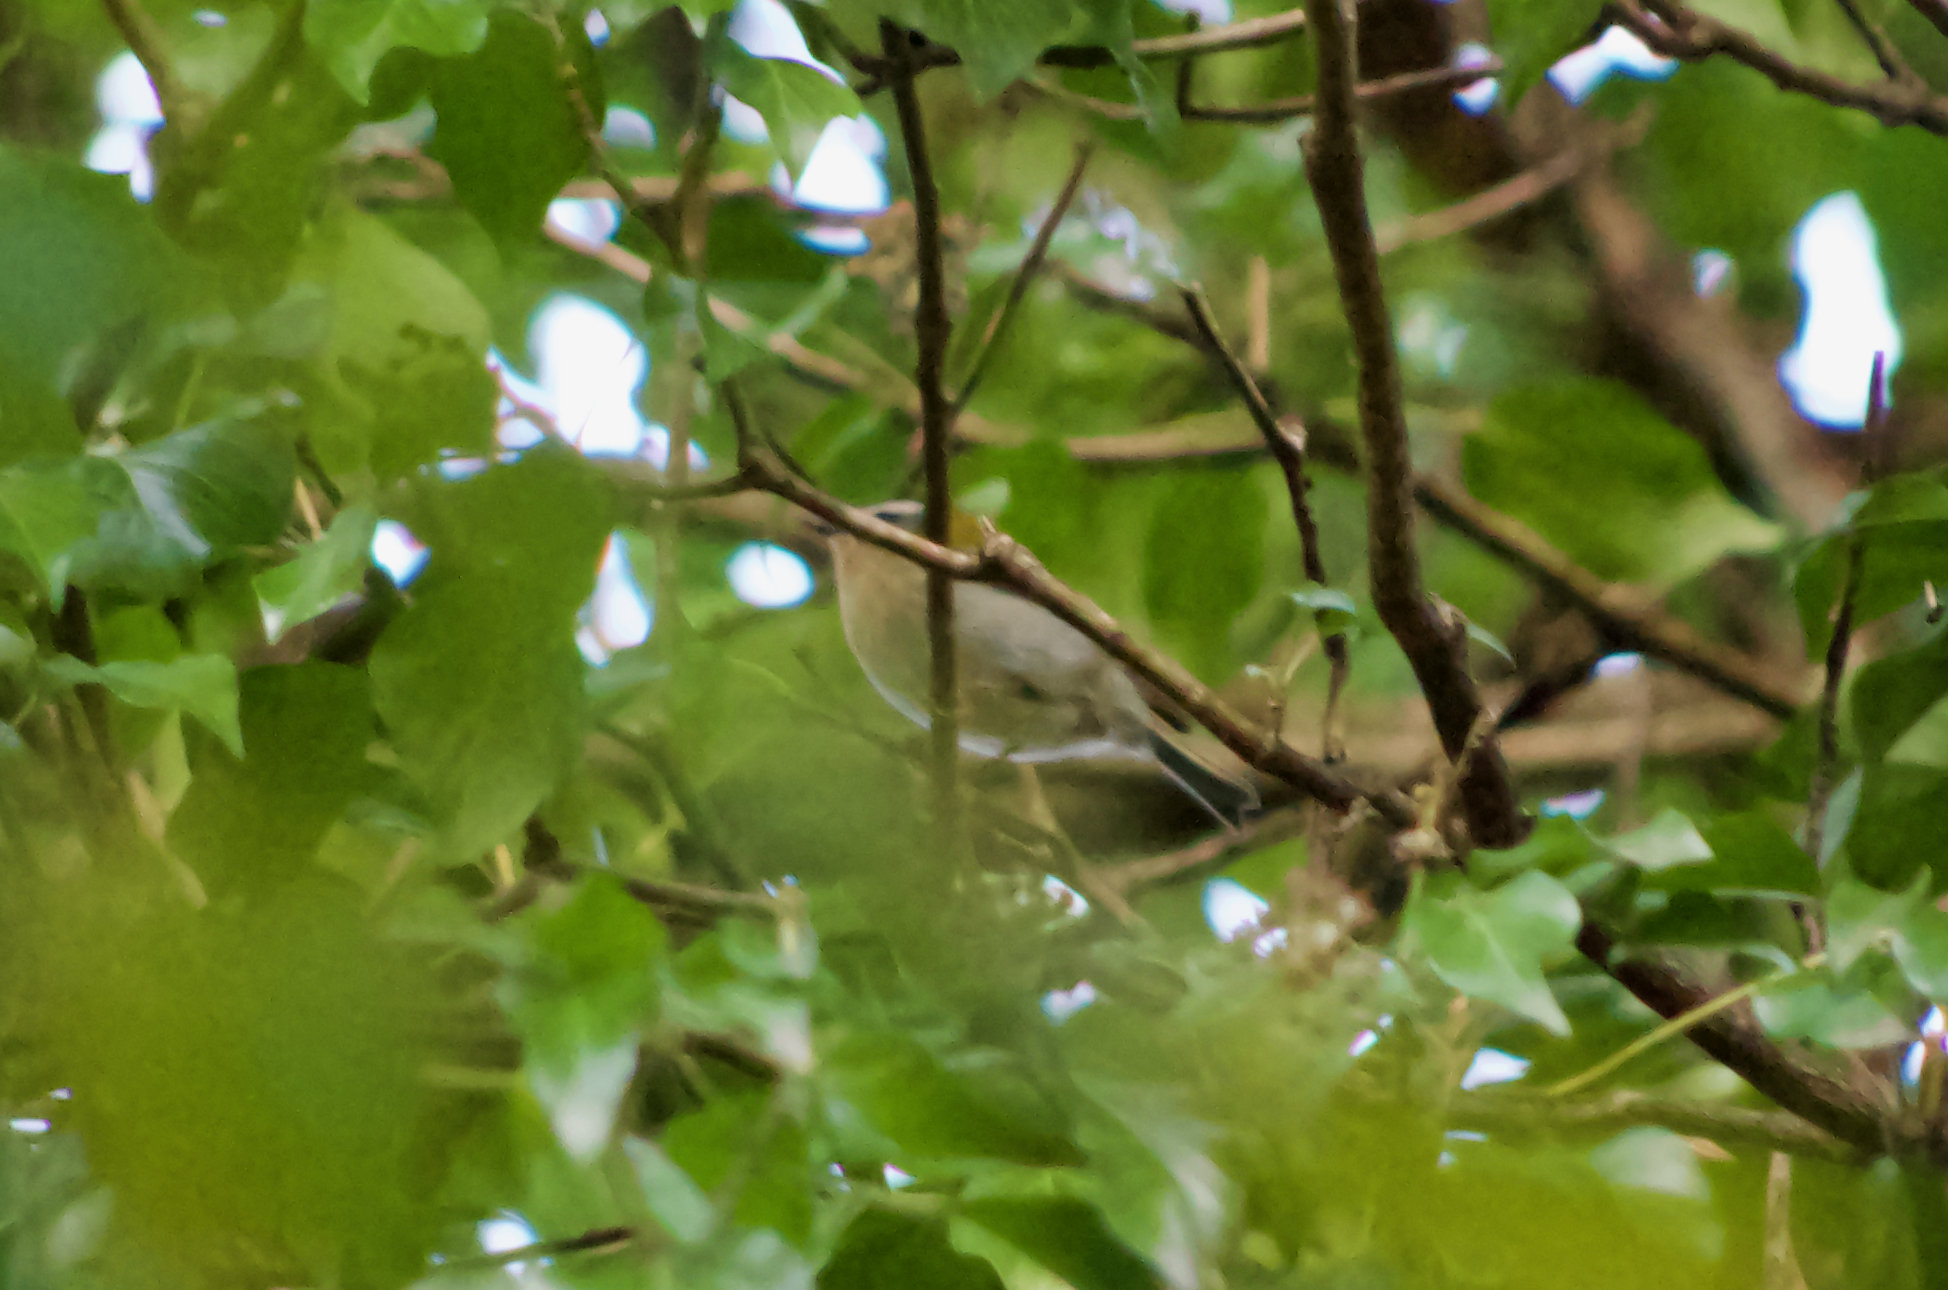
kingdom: Animalia
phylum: Chordata
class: Aves
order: Passeriformes
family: Regulidae
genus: Regulus
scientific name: Regulus ignicapilla
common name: Firecrest
